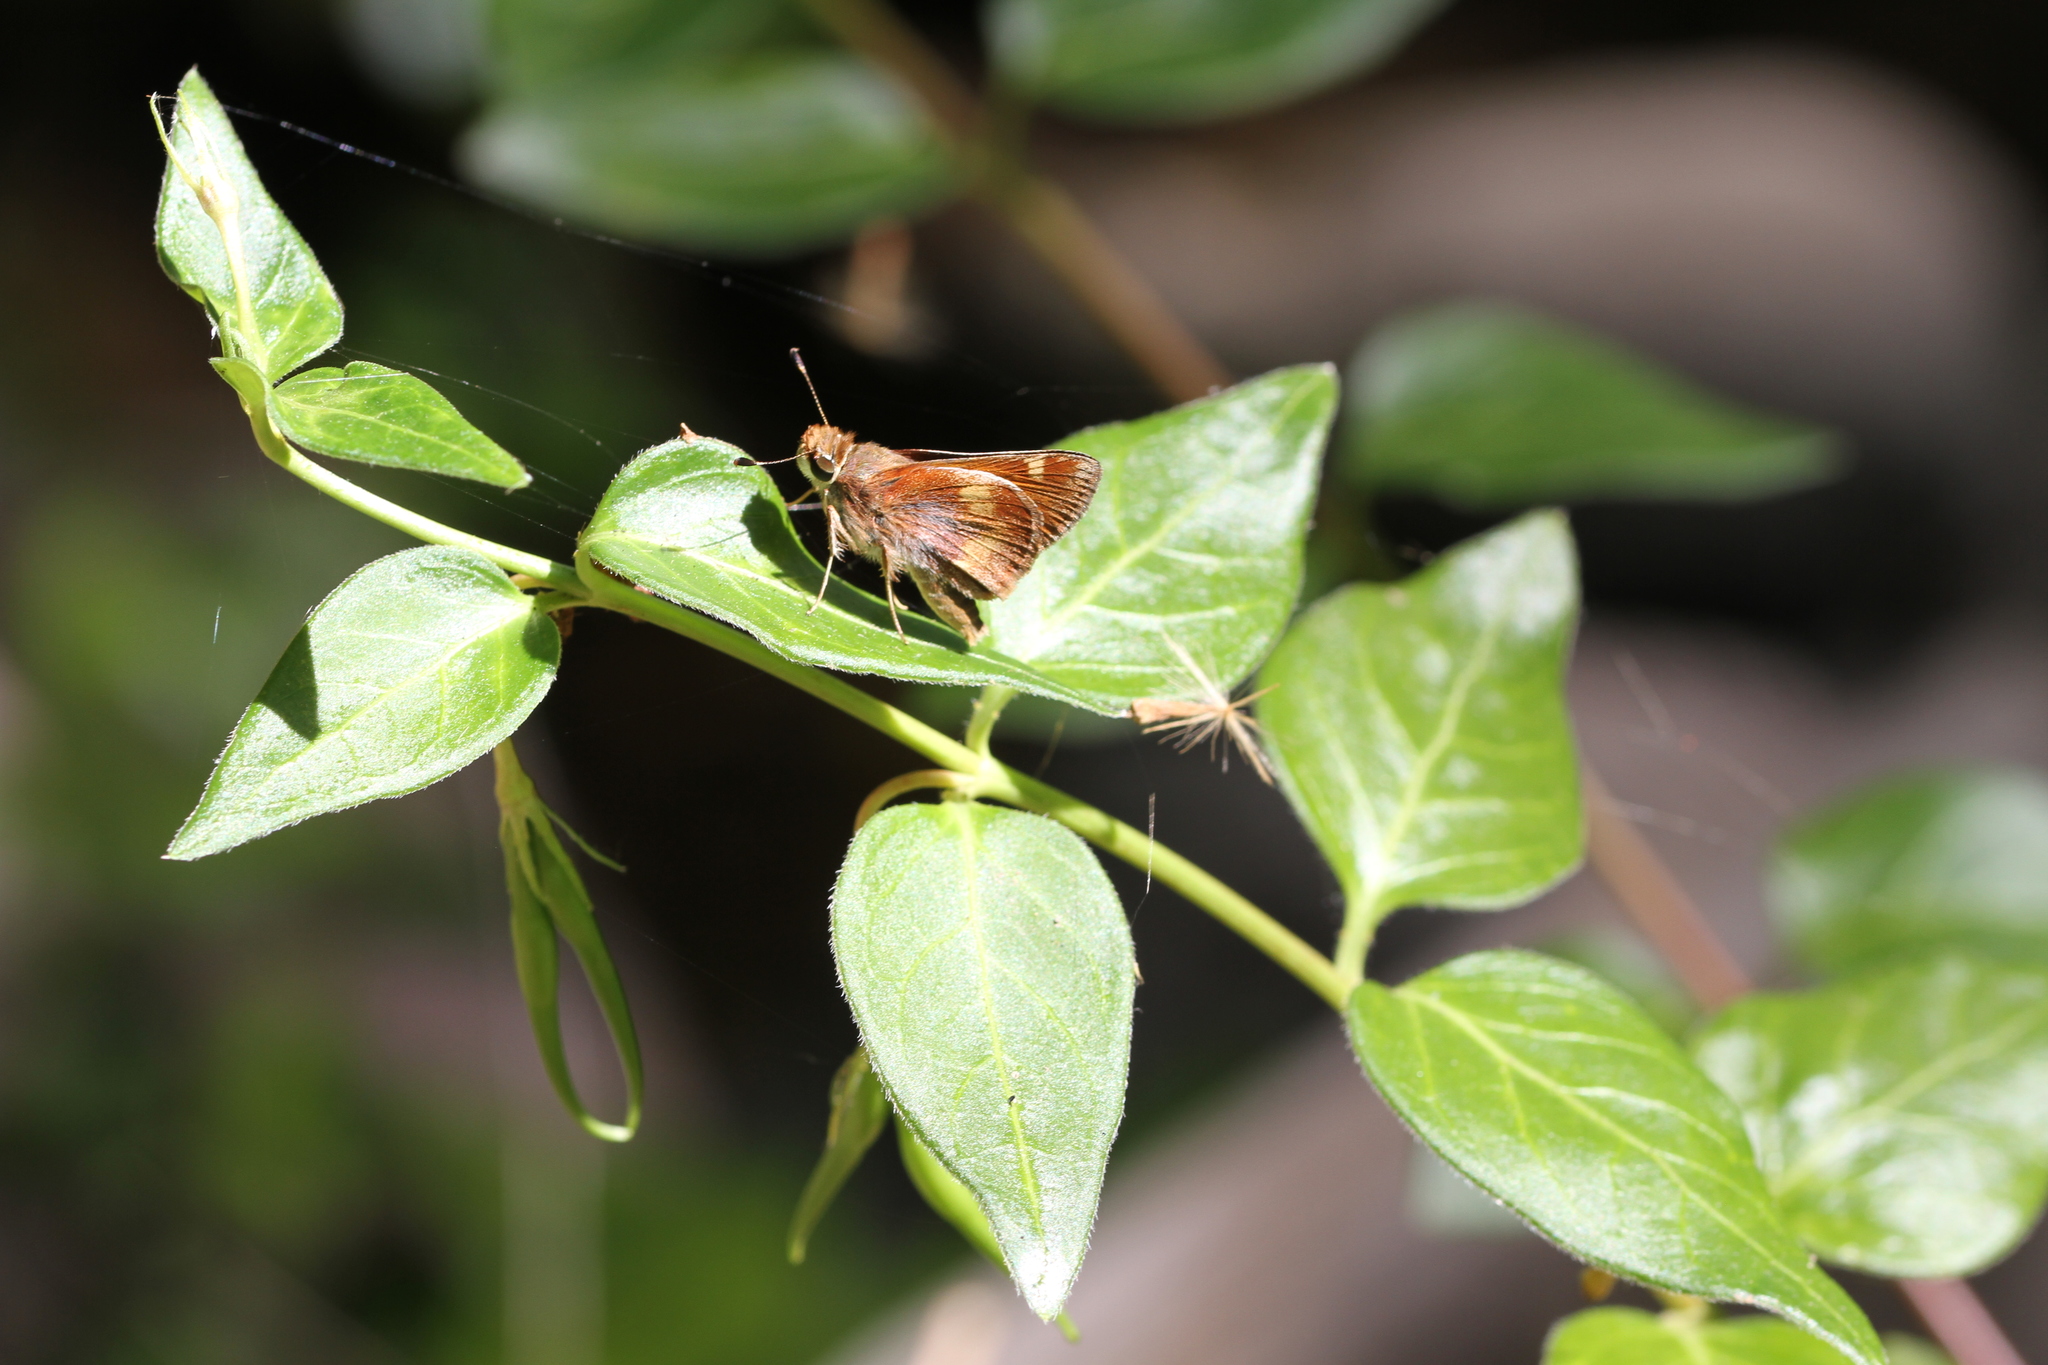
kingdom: Animalia
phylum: Arthropoda
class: Insecta
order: Lepidoptera
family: Hesperiidae
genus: Lon
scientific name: Lon melane
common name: Umber skipper
